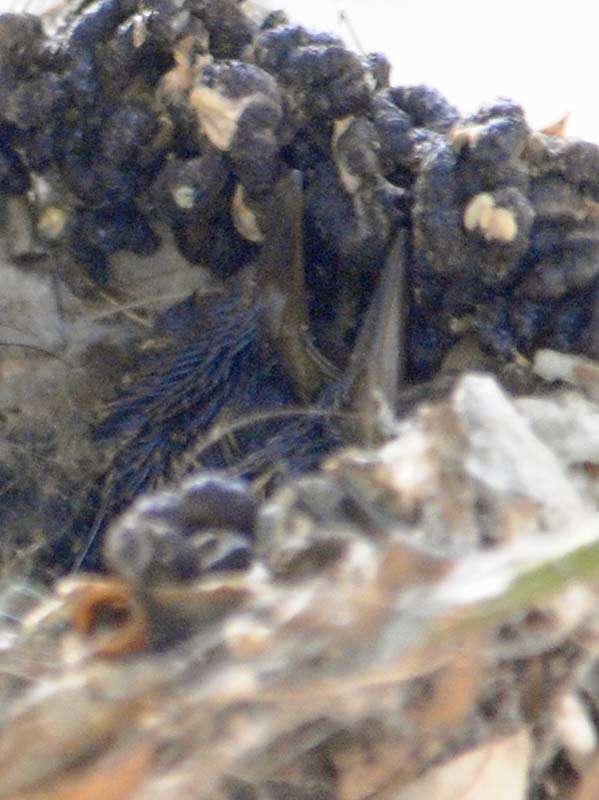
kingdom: Animalia
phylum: Chordata
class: Aves
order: Apodiformes
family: Trochilidae
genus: Cynanthus
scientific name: Cynanthus latirostris
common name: Broad-billed hummingbird
